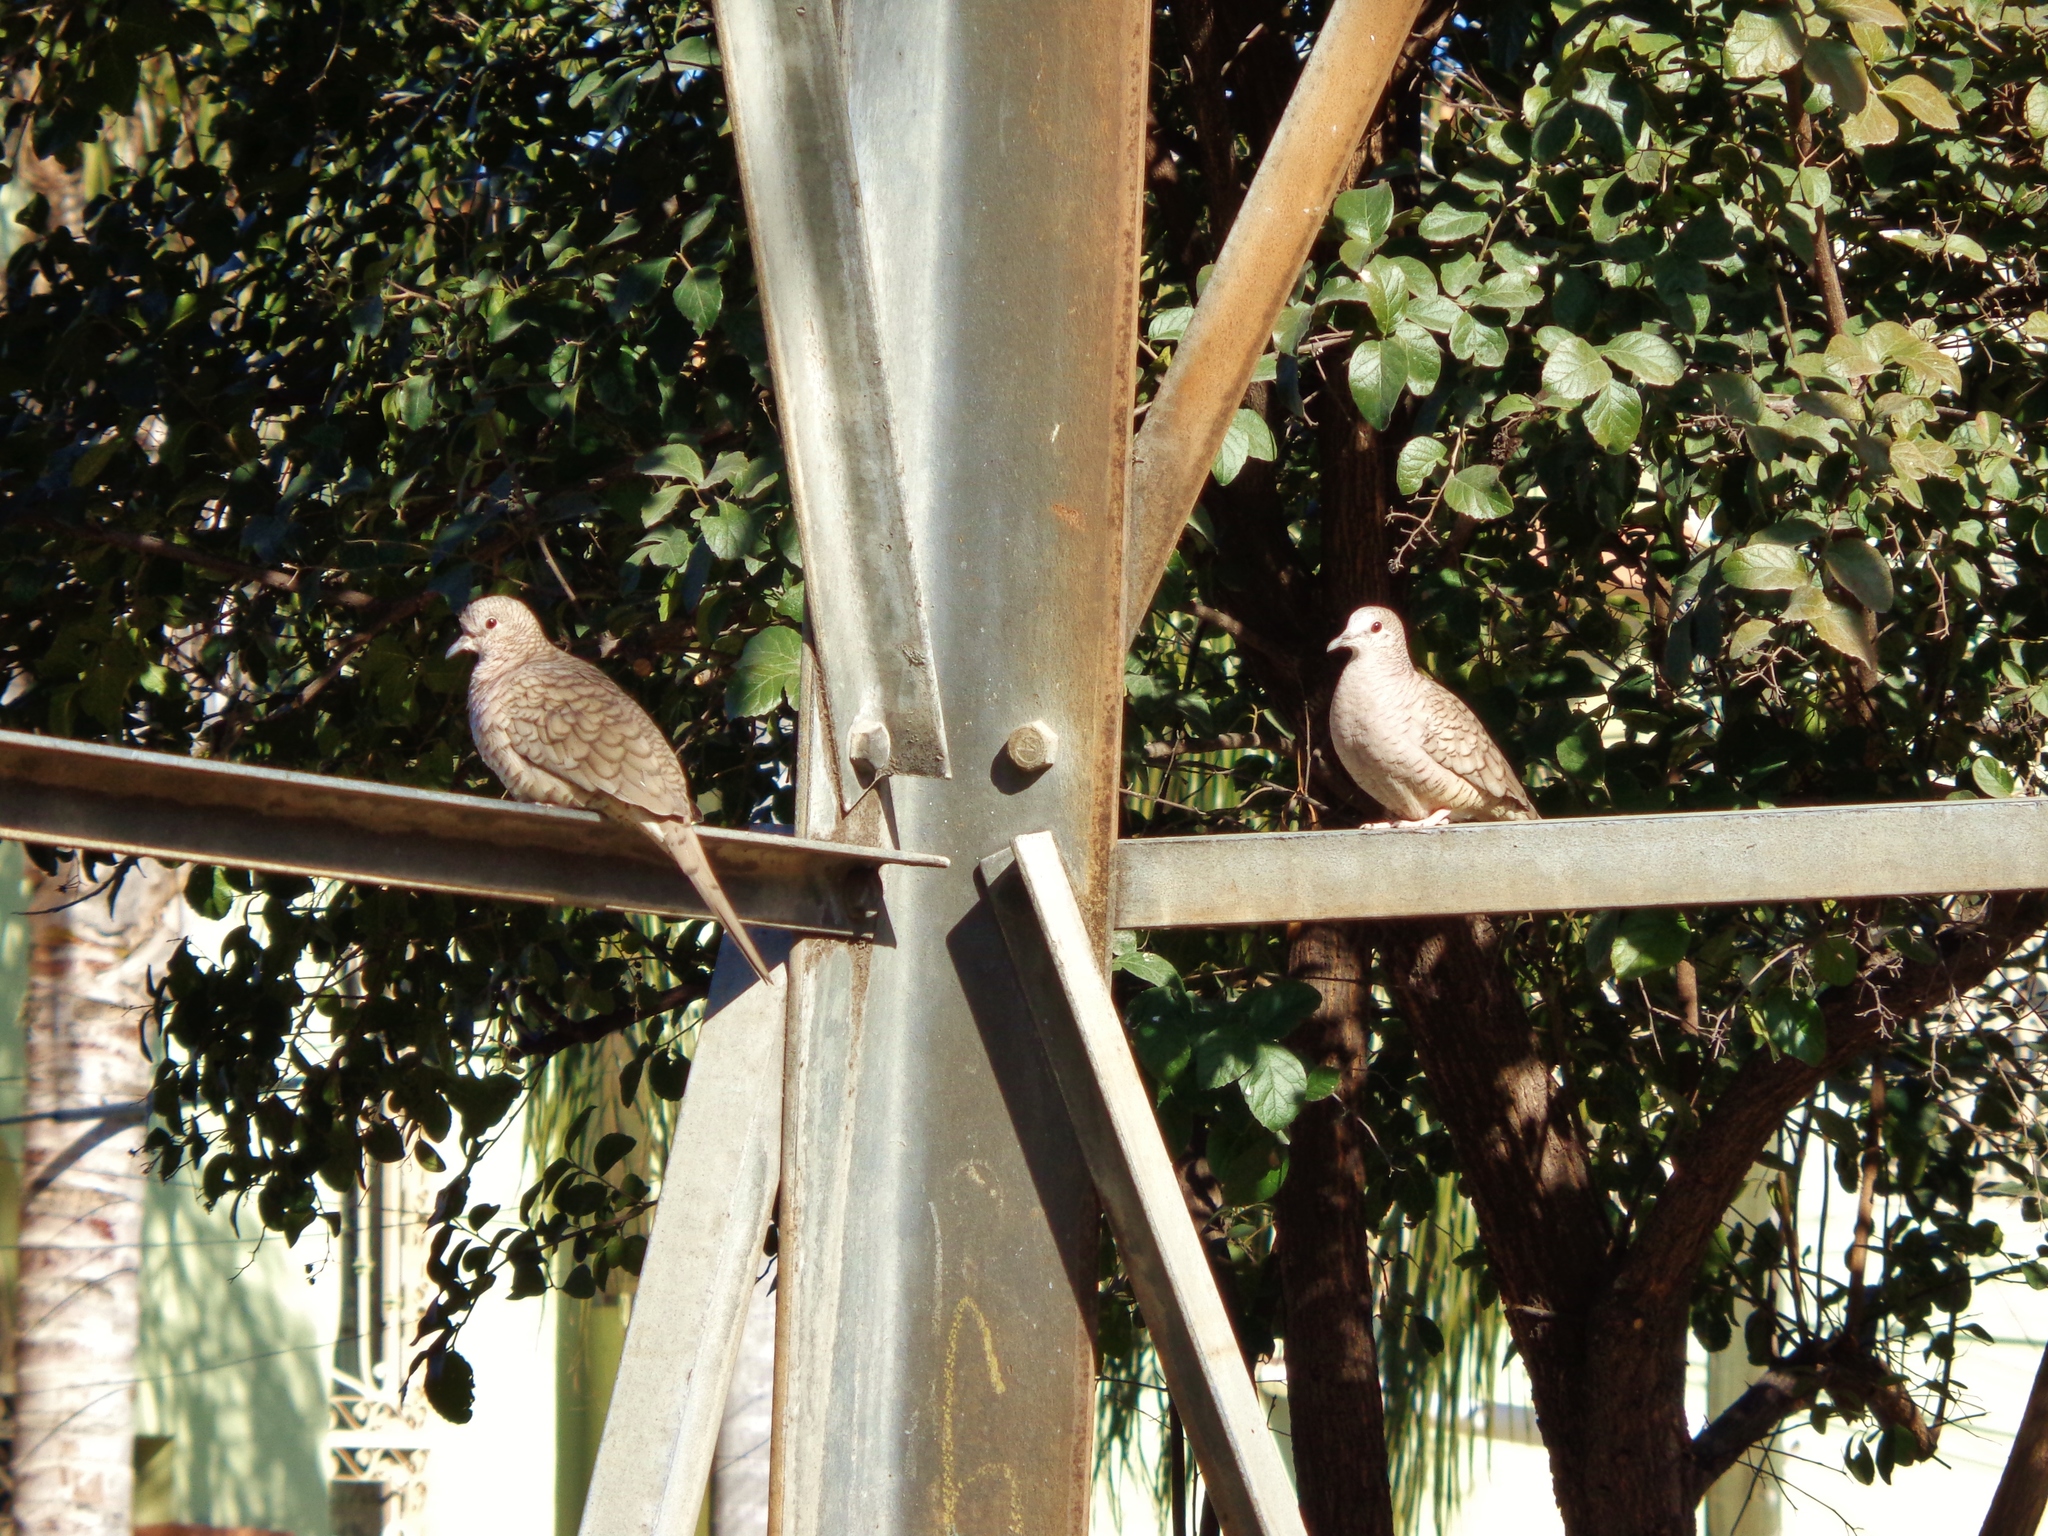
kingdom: Animalia
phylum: Chordata
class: Aves
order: Columbiformes
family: Columbidae
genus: Columbina
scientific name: Columbina inca
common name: Inca dove
